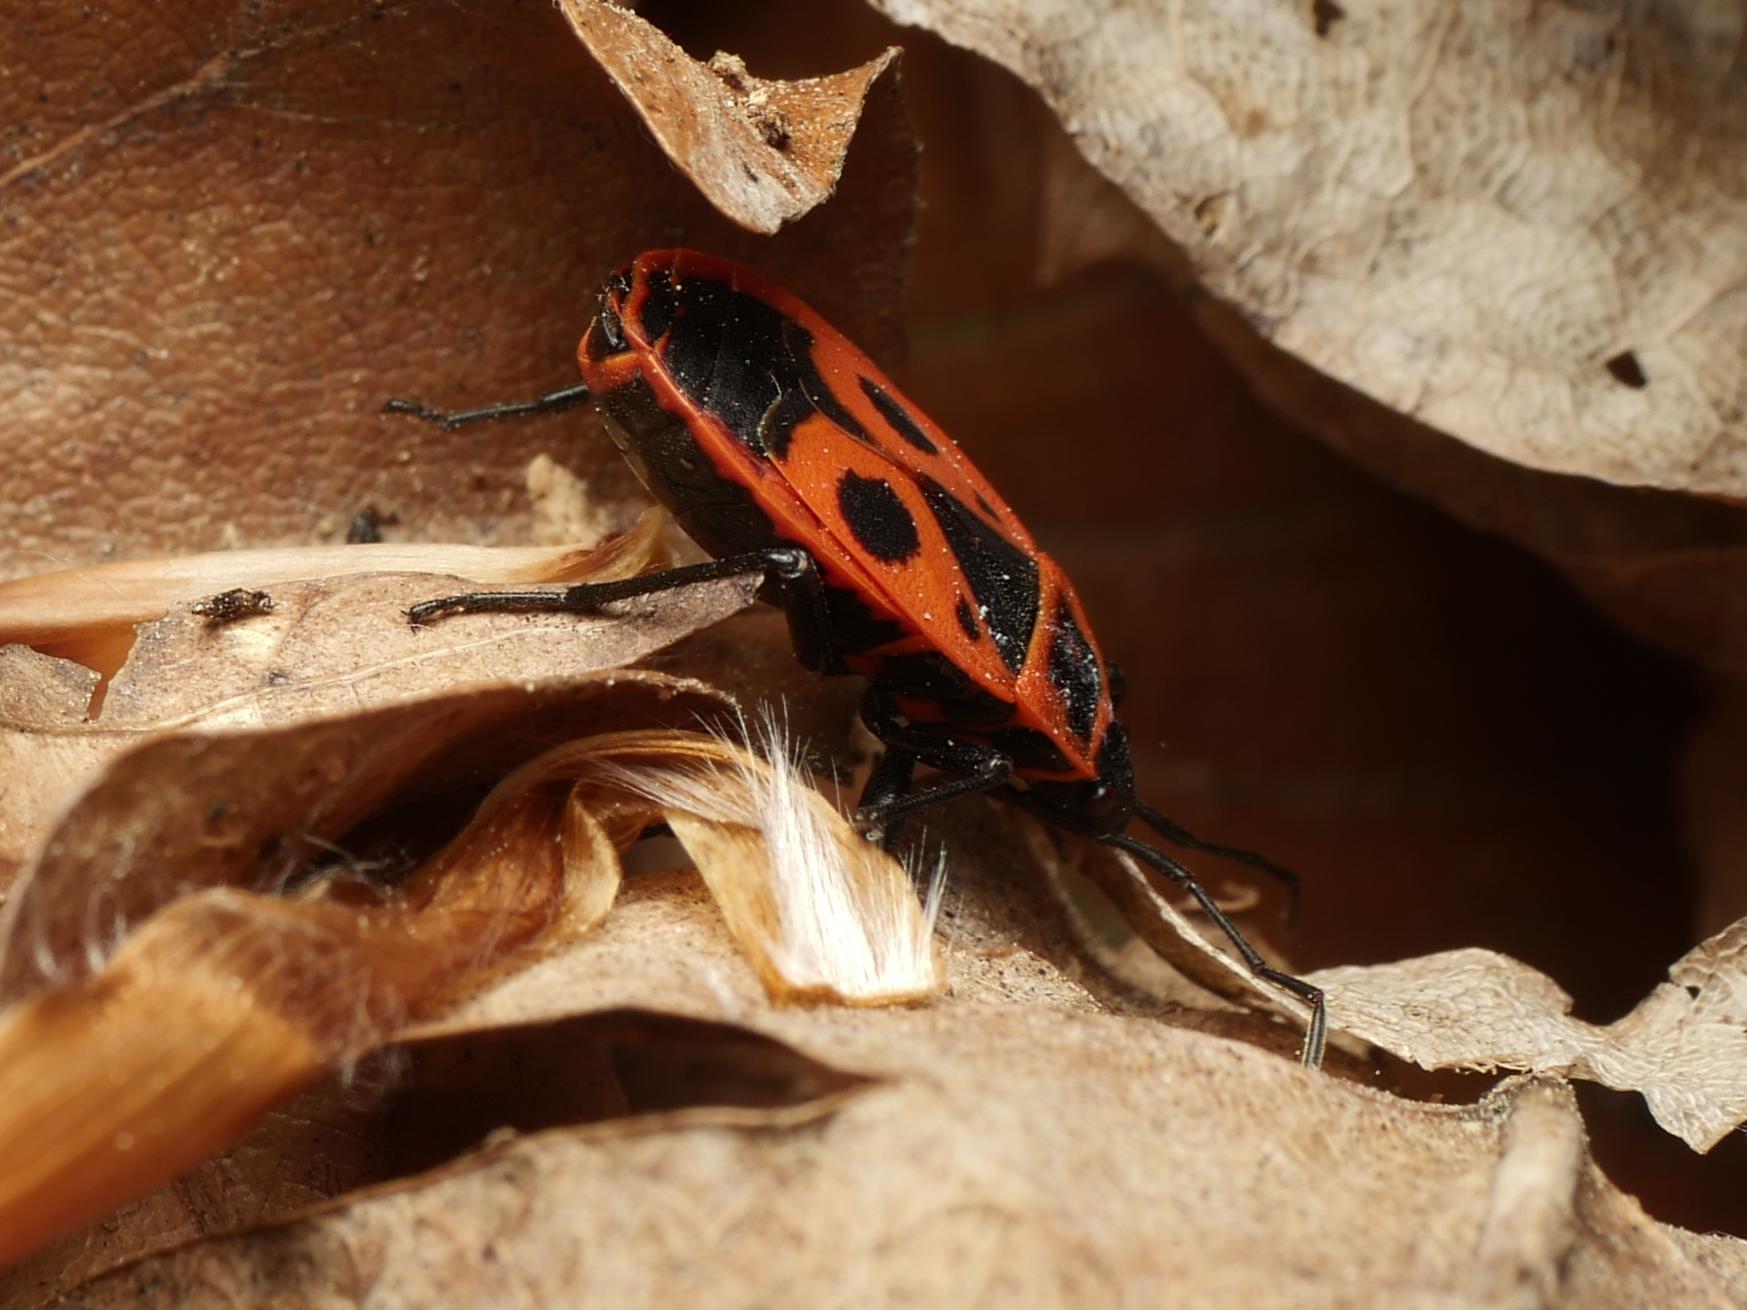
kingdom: Animalia
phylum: Arthropoda
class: Insecta
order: Hemiptera
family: Pyrrhocoridae
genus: Pyrrhocoris
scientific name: Pyrrhocoris apterus
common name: Firebug
